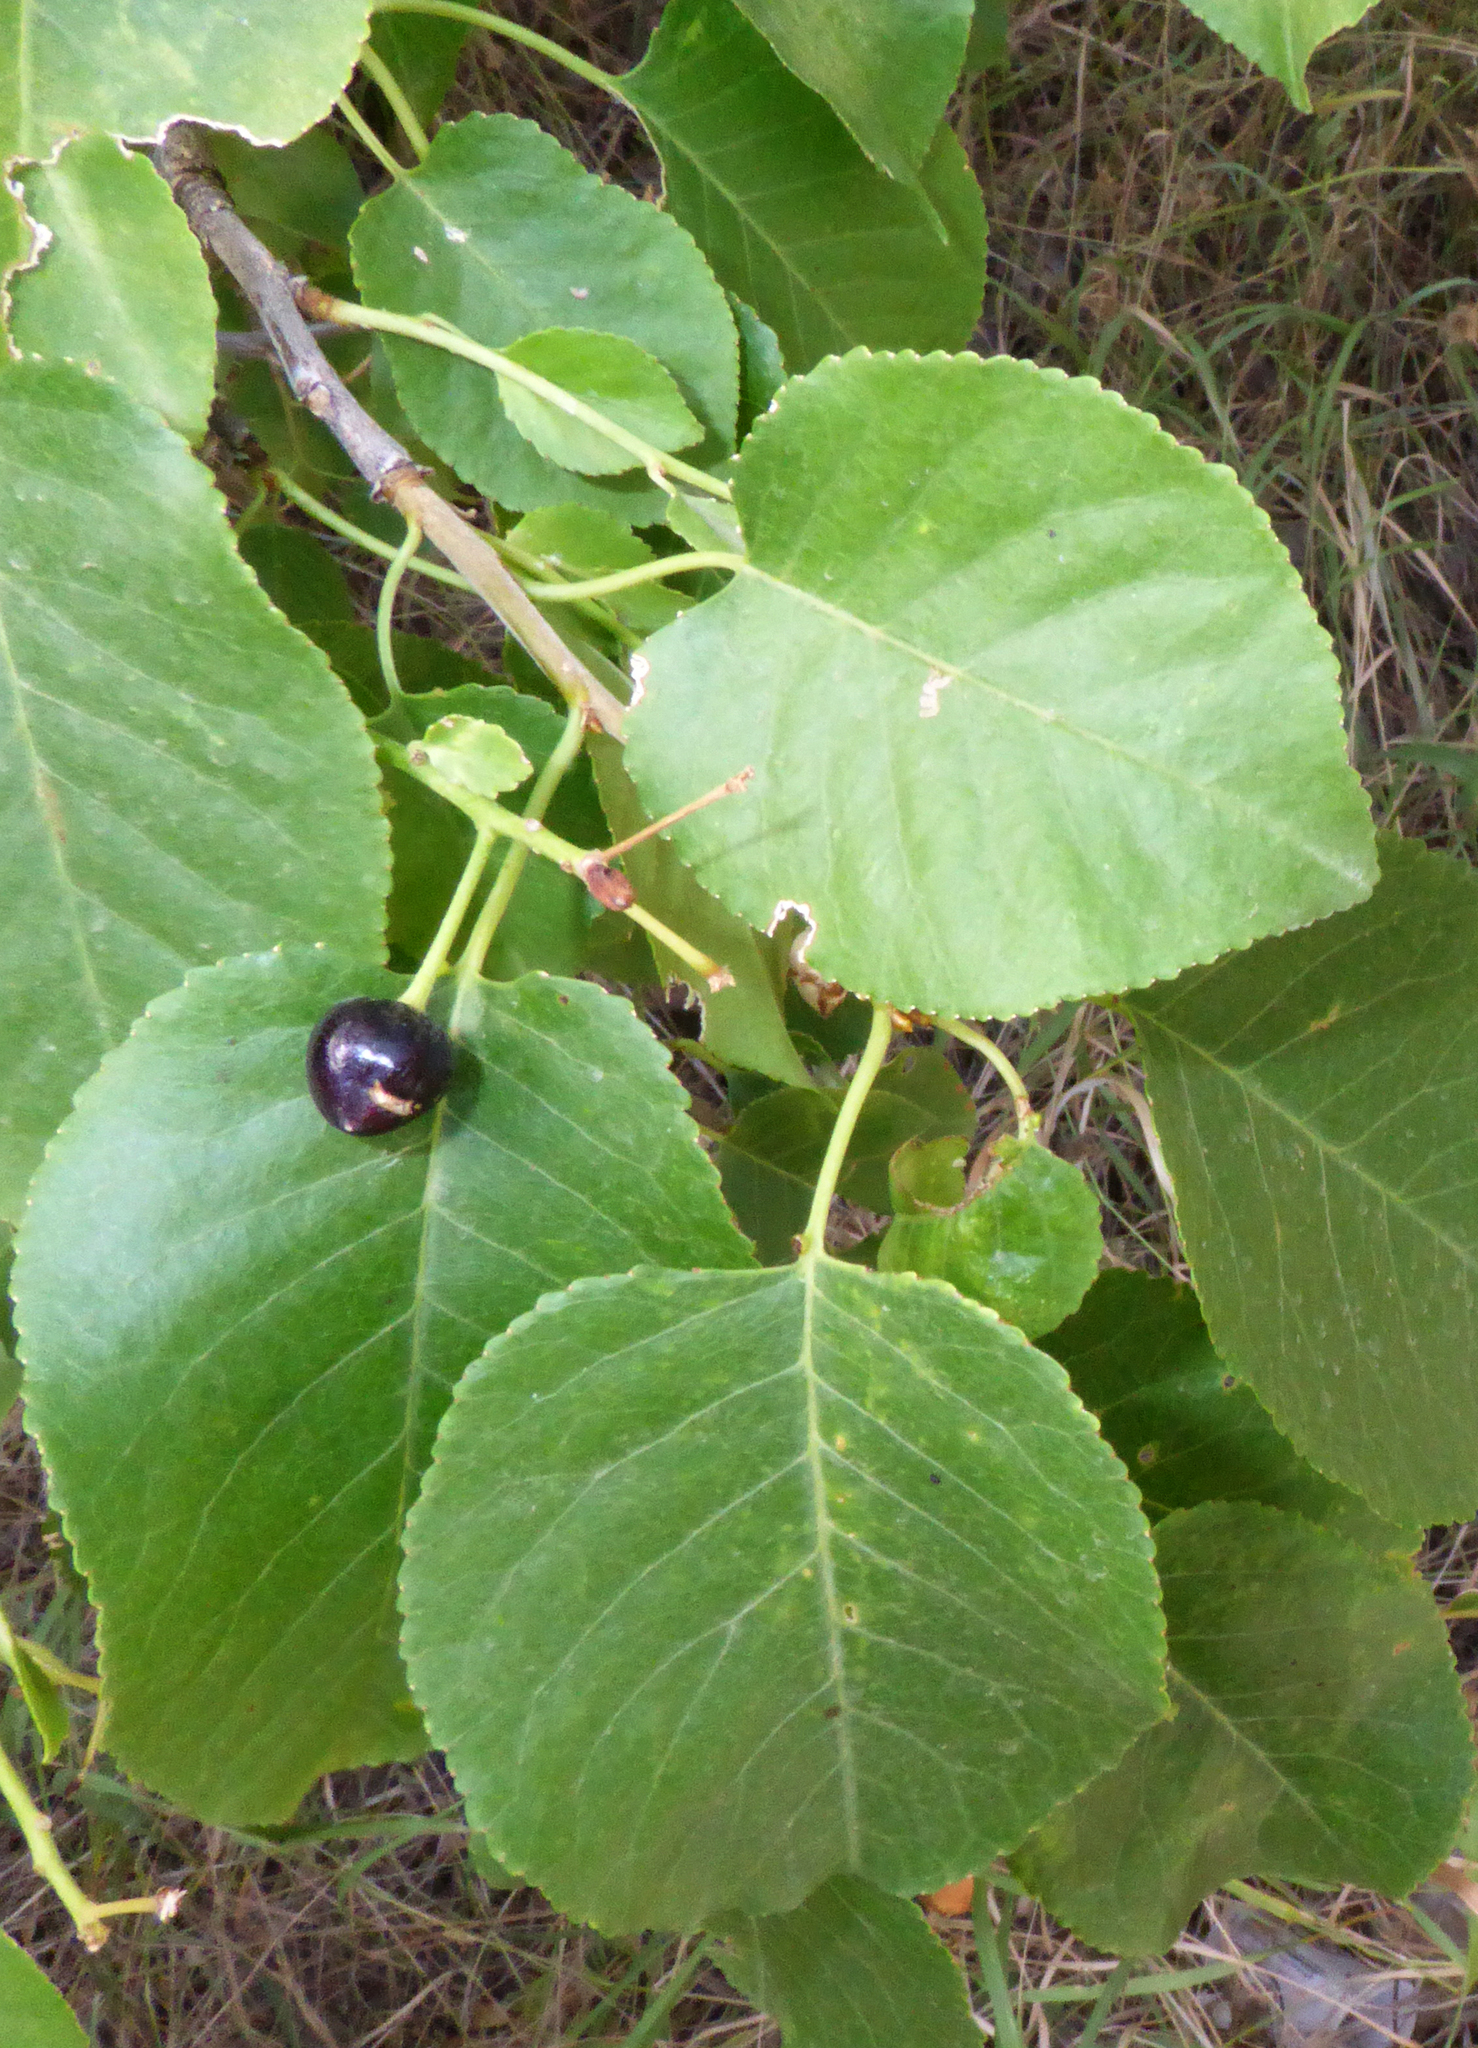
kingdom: Plantae
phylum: Tracheophyta
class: Magnoliopsida
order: Rosales
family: Rosaceae
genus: Prunus
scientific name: Prunus mahaleb
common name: Mahaleb cherry
